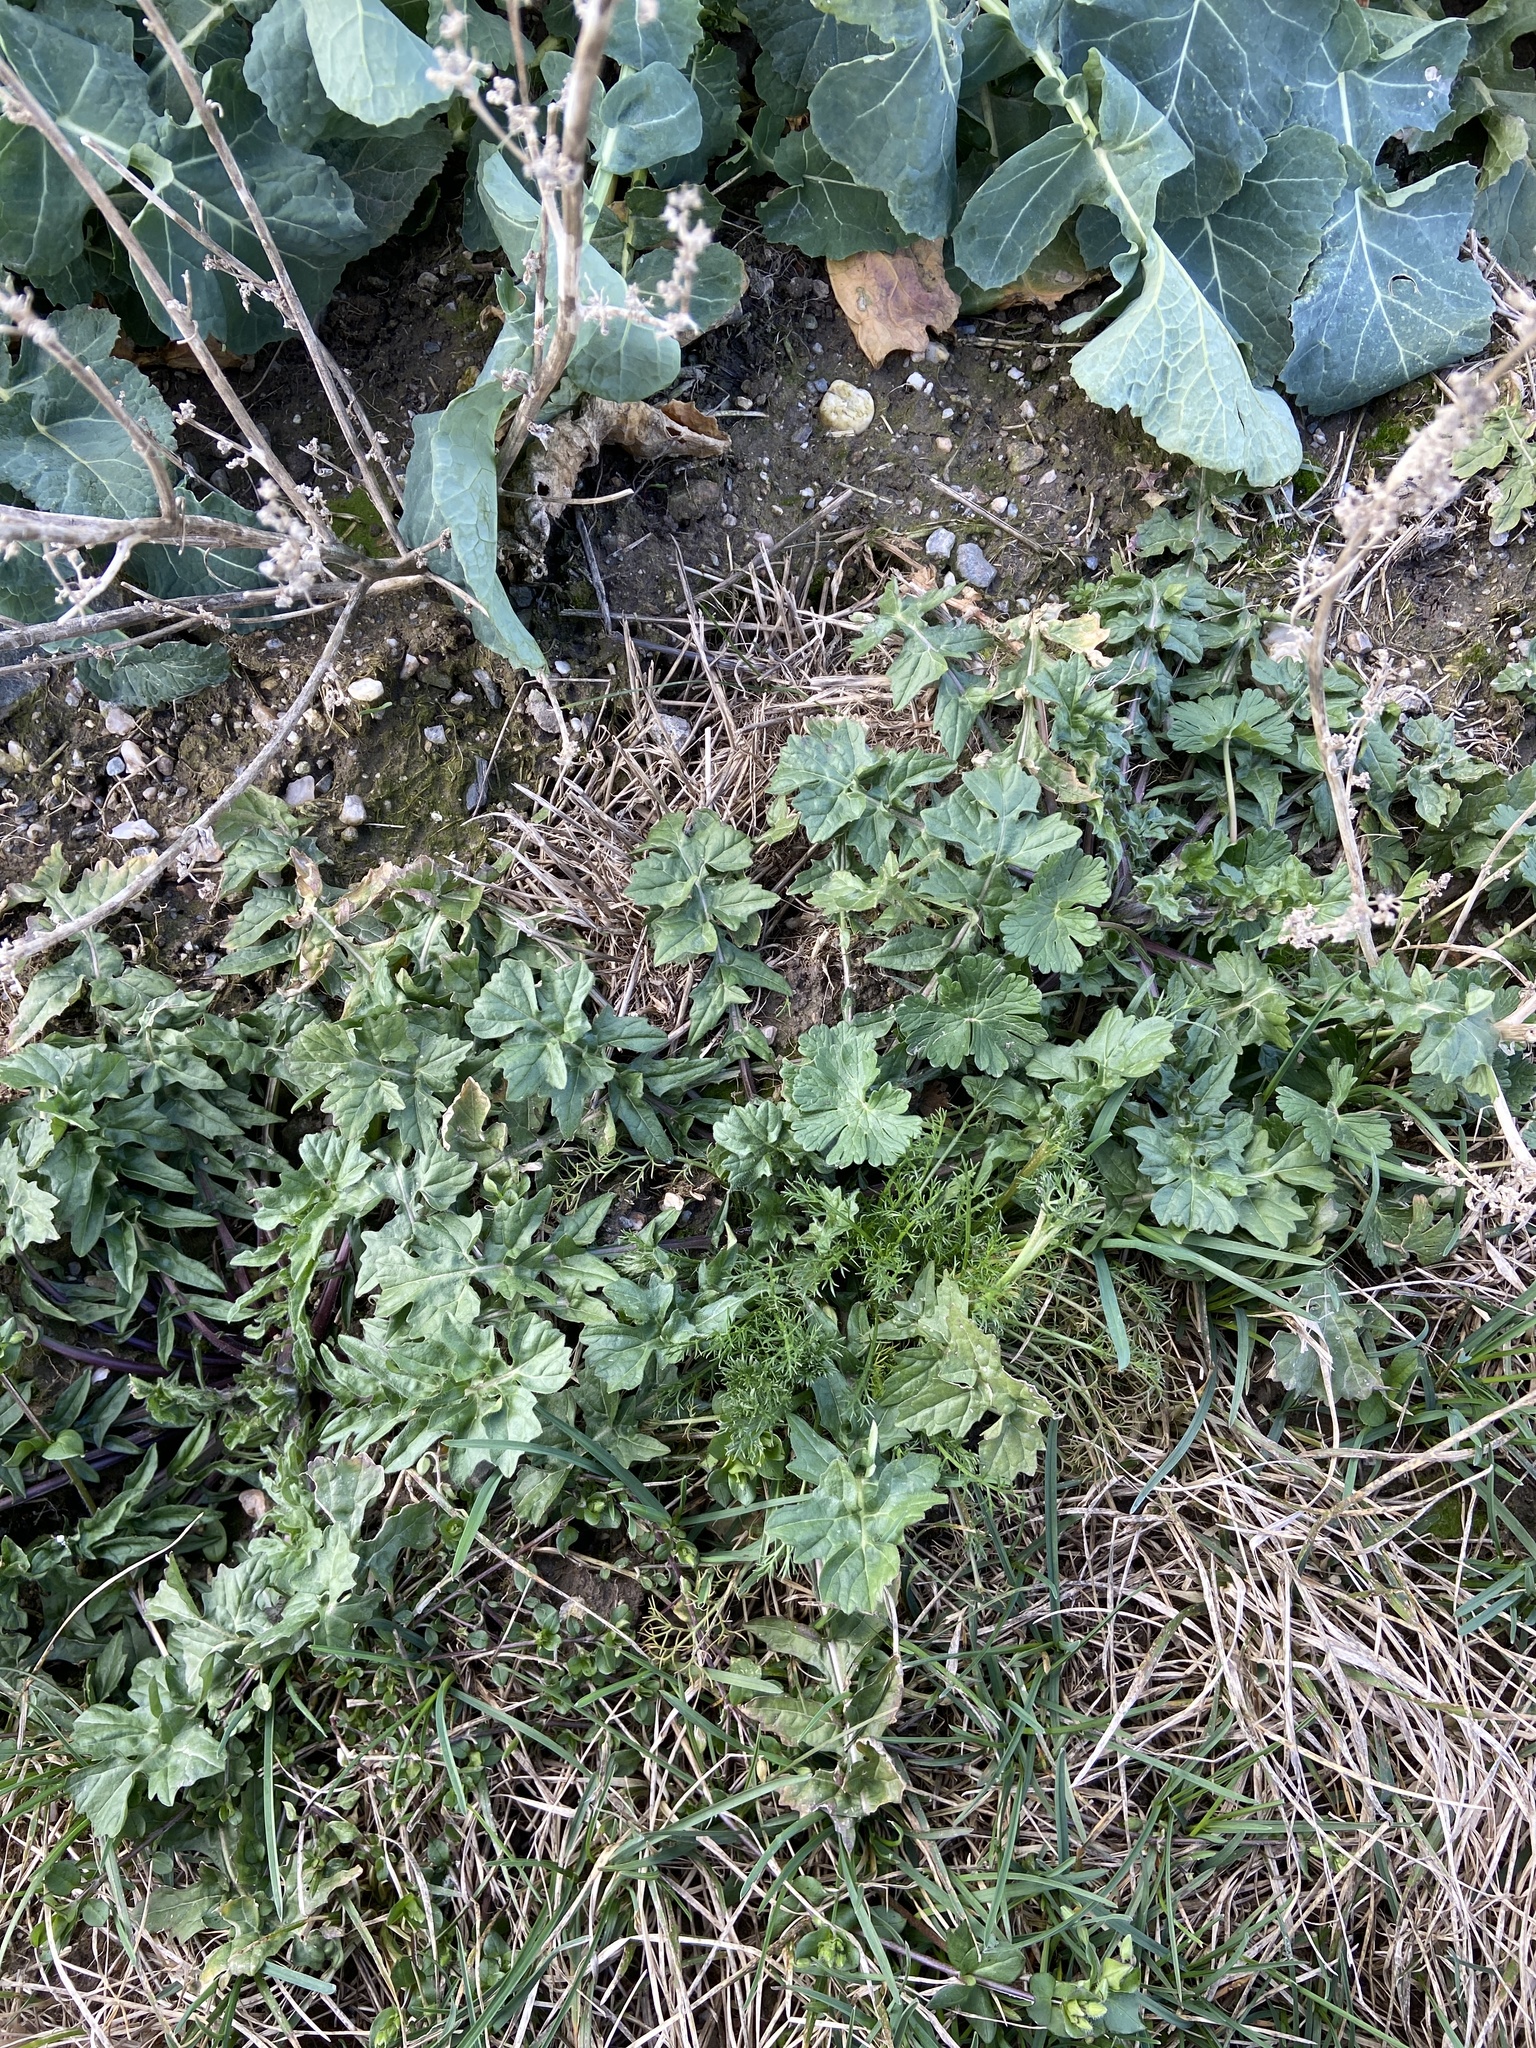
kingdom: Plantae
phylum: Tracheophyta
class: Magnoliopsida
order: Geraniales
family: Geraniaceae
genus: Geranium
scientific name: Geranium pyrenaicum
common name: Hedgerow crane's-bill
